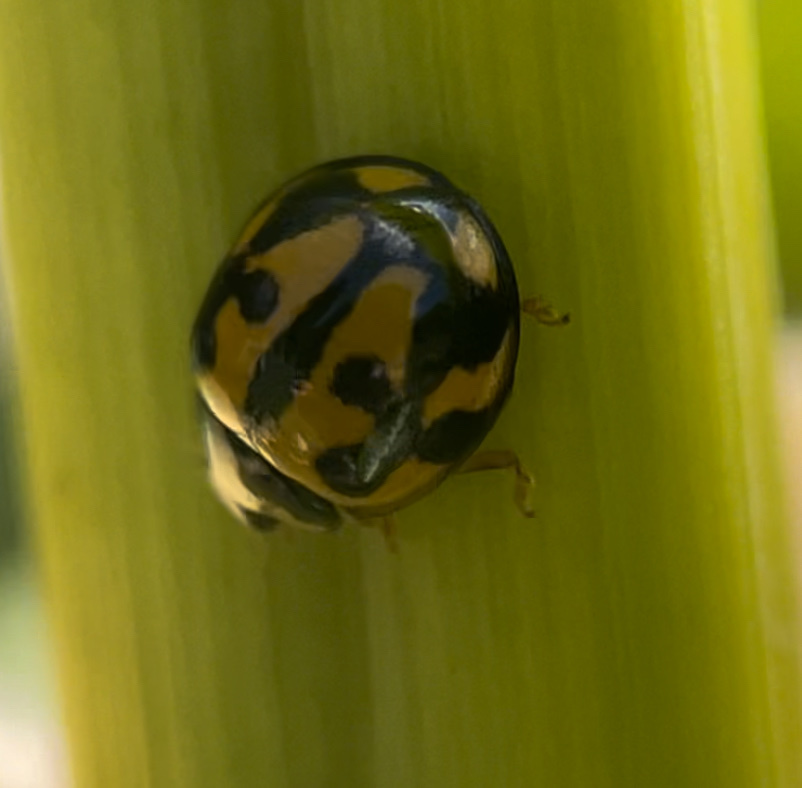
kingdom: Animalia
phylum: Arthropoda
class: Insecta
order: Coleoptera
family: Coccinellidae
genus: Coelophora
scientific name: Coelophora inaequalis
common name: Common australian lady beetle
